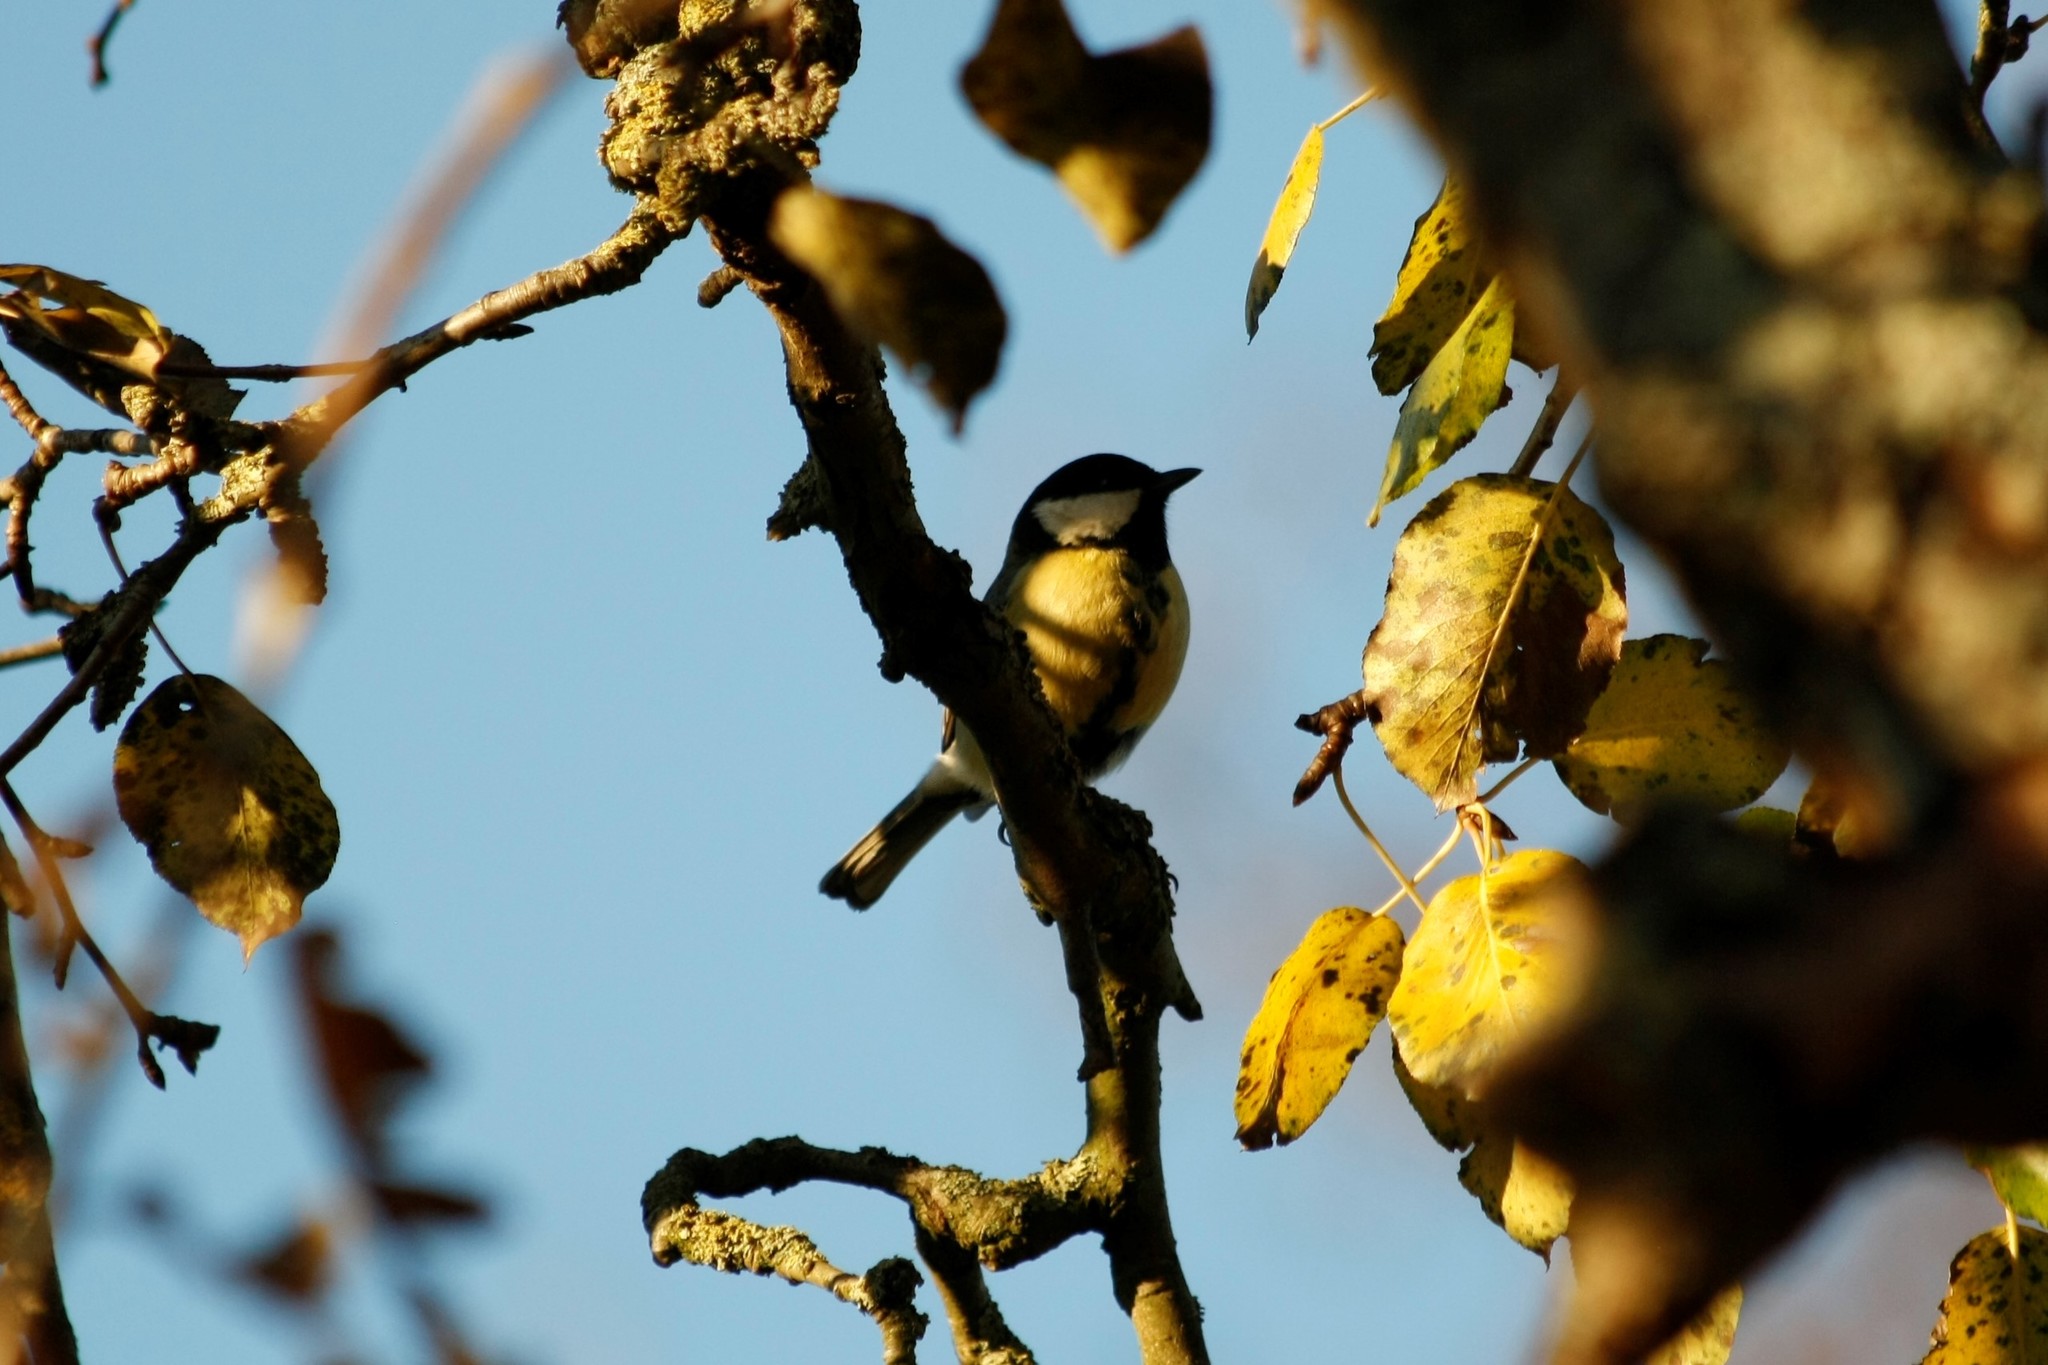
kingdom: Animalia
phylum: Chordata
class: Aves
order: Passeriformes
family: Paridae
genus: Parus
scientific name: Parus major
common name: Great tit
